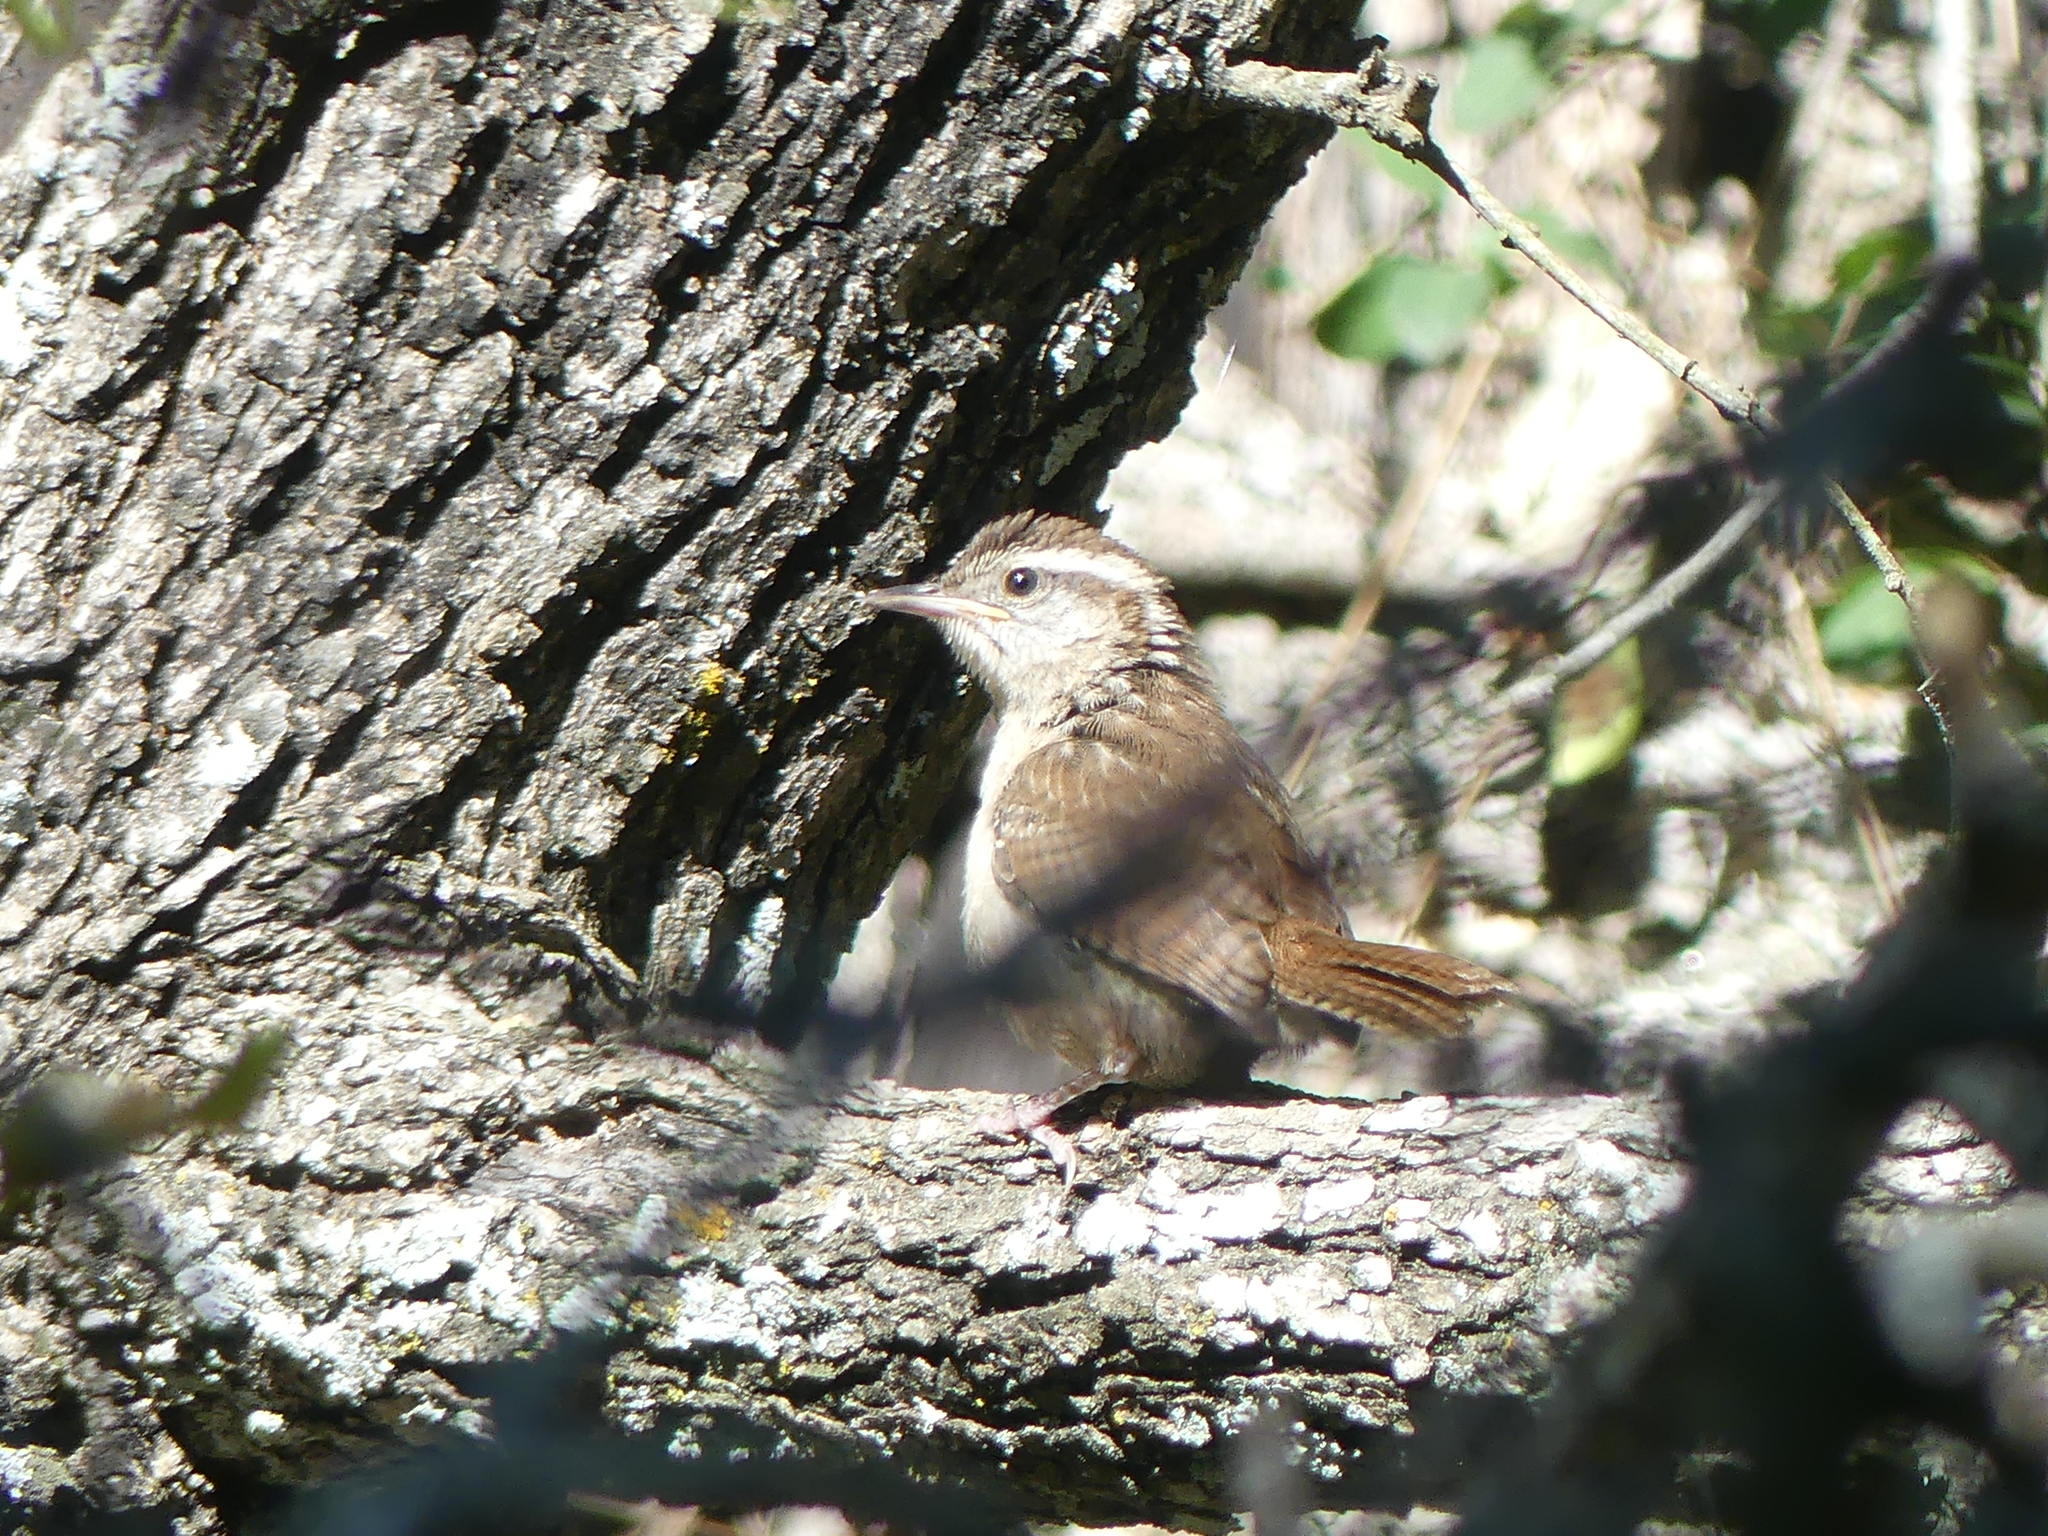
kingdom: Animalia
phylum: Chordata
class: Aves
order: Passeriformes
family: Troglodytidae
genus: Thryothorus
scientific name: Thryothorus ludovicianus
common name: Carolina wren
